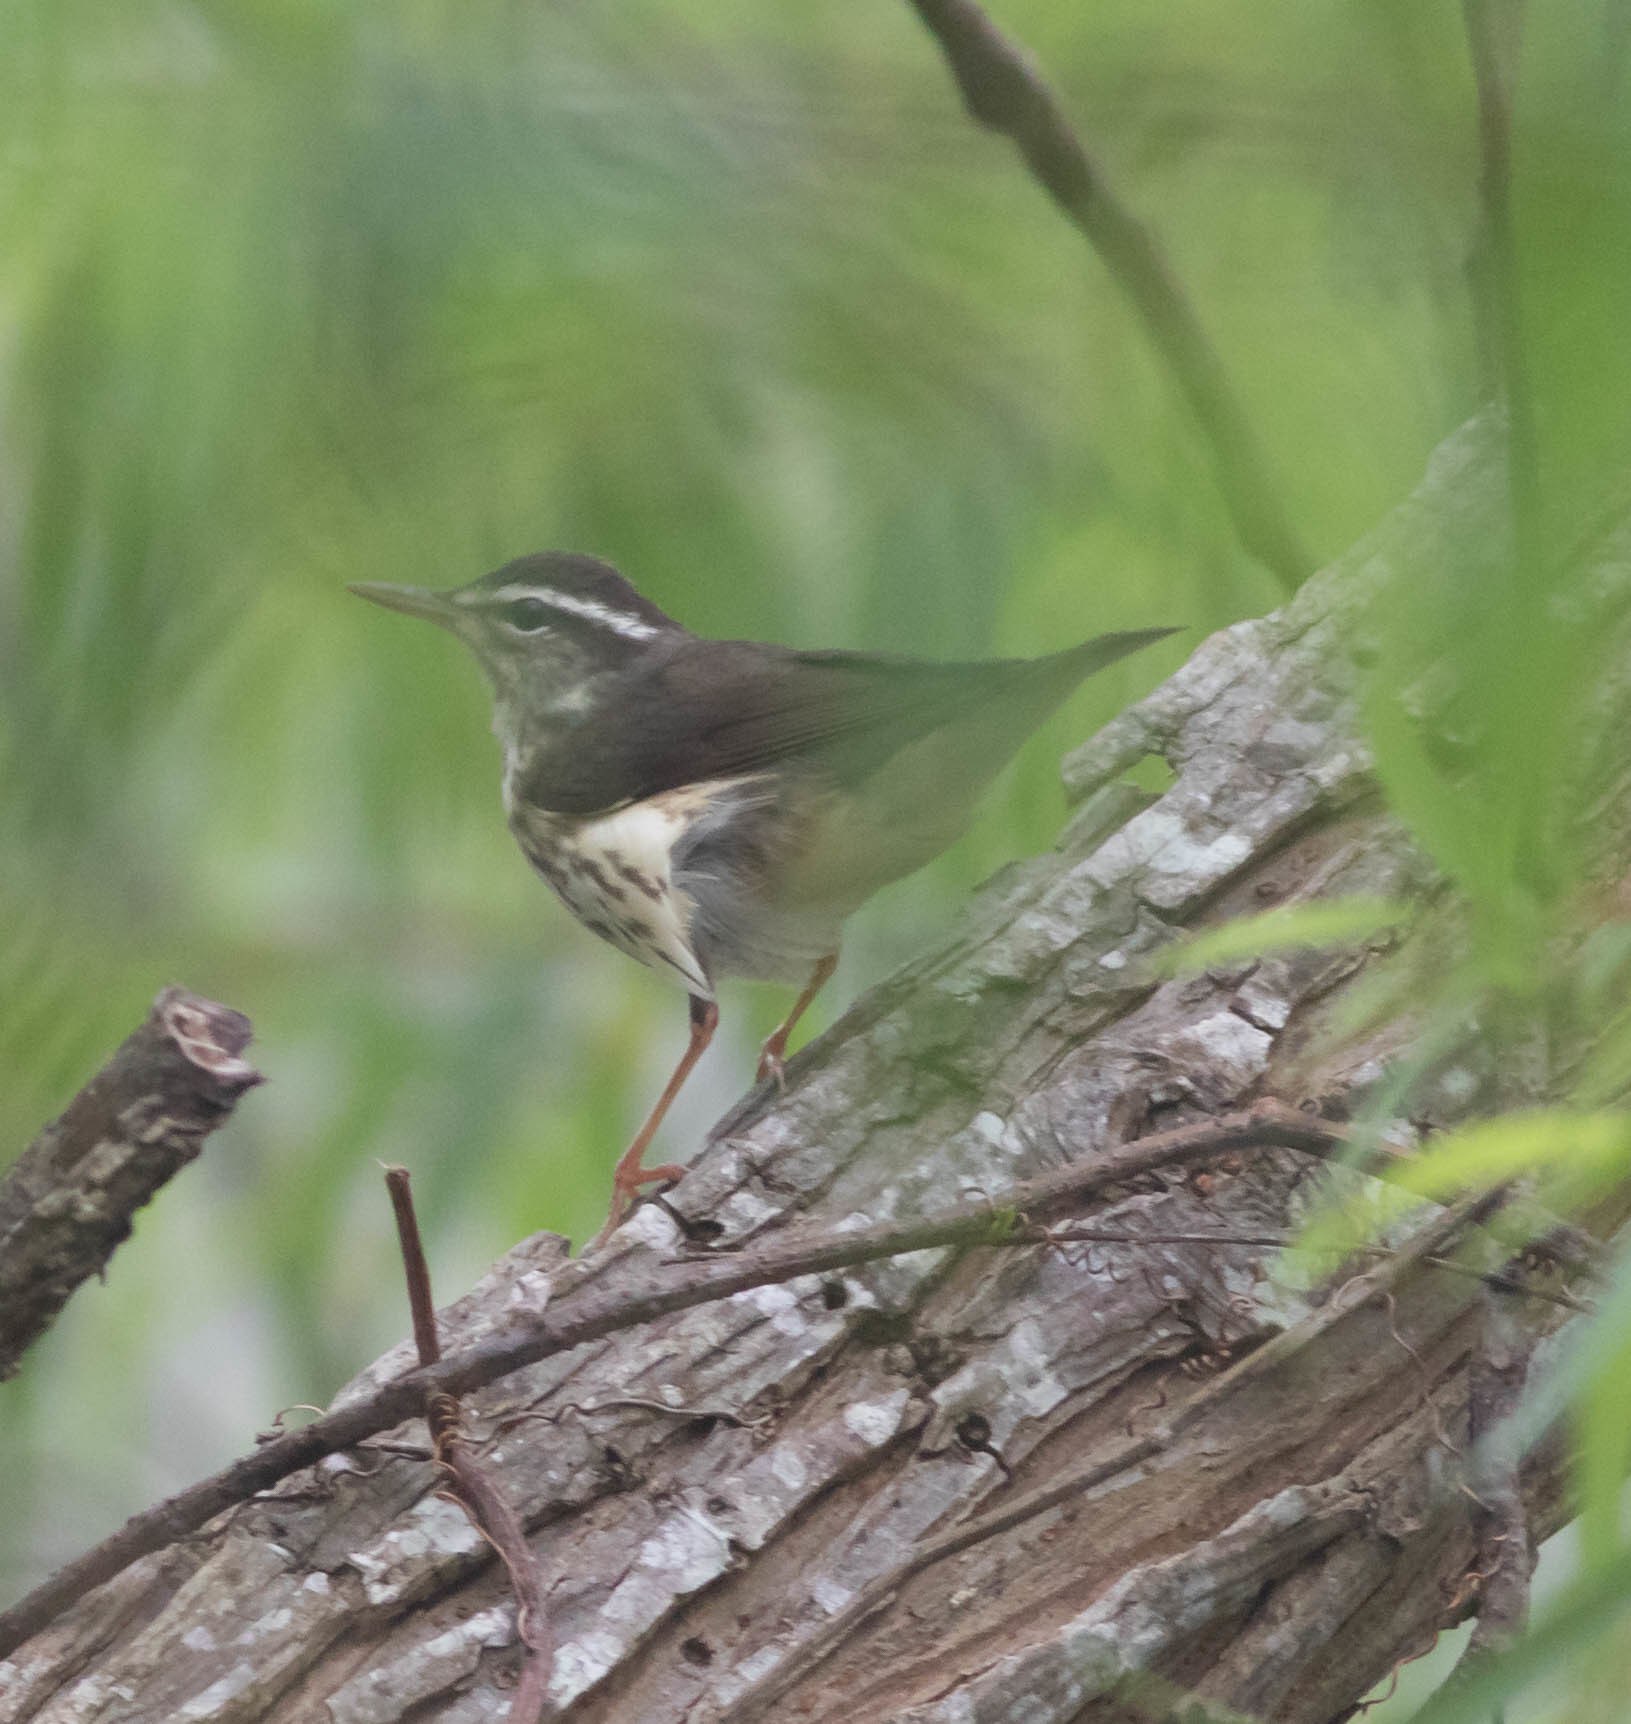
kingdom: Animalia
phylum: Chordata
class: Aves
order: Passeriformes
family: Parulidae
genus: Parkesia
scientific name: Parkesia motacilla
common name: Louisiana waterthrush
